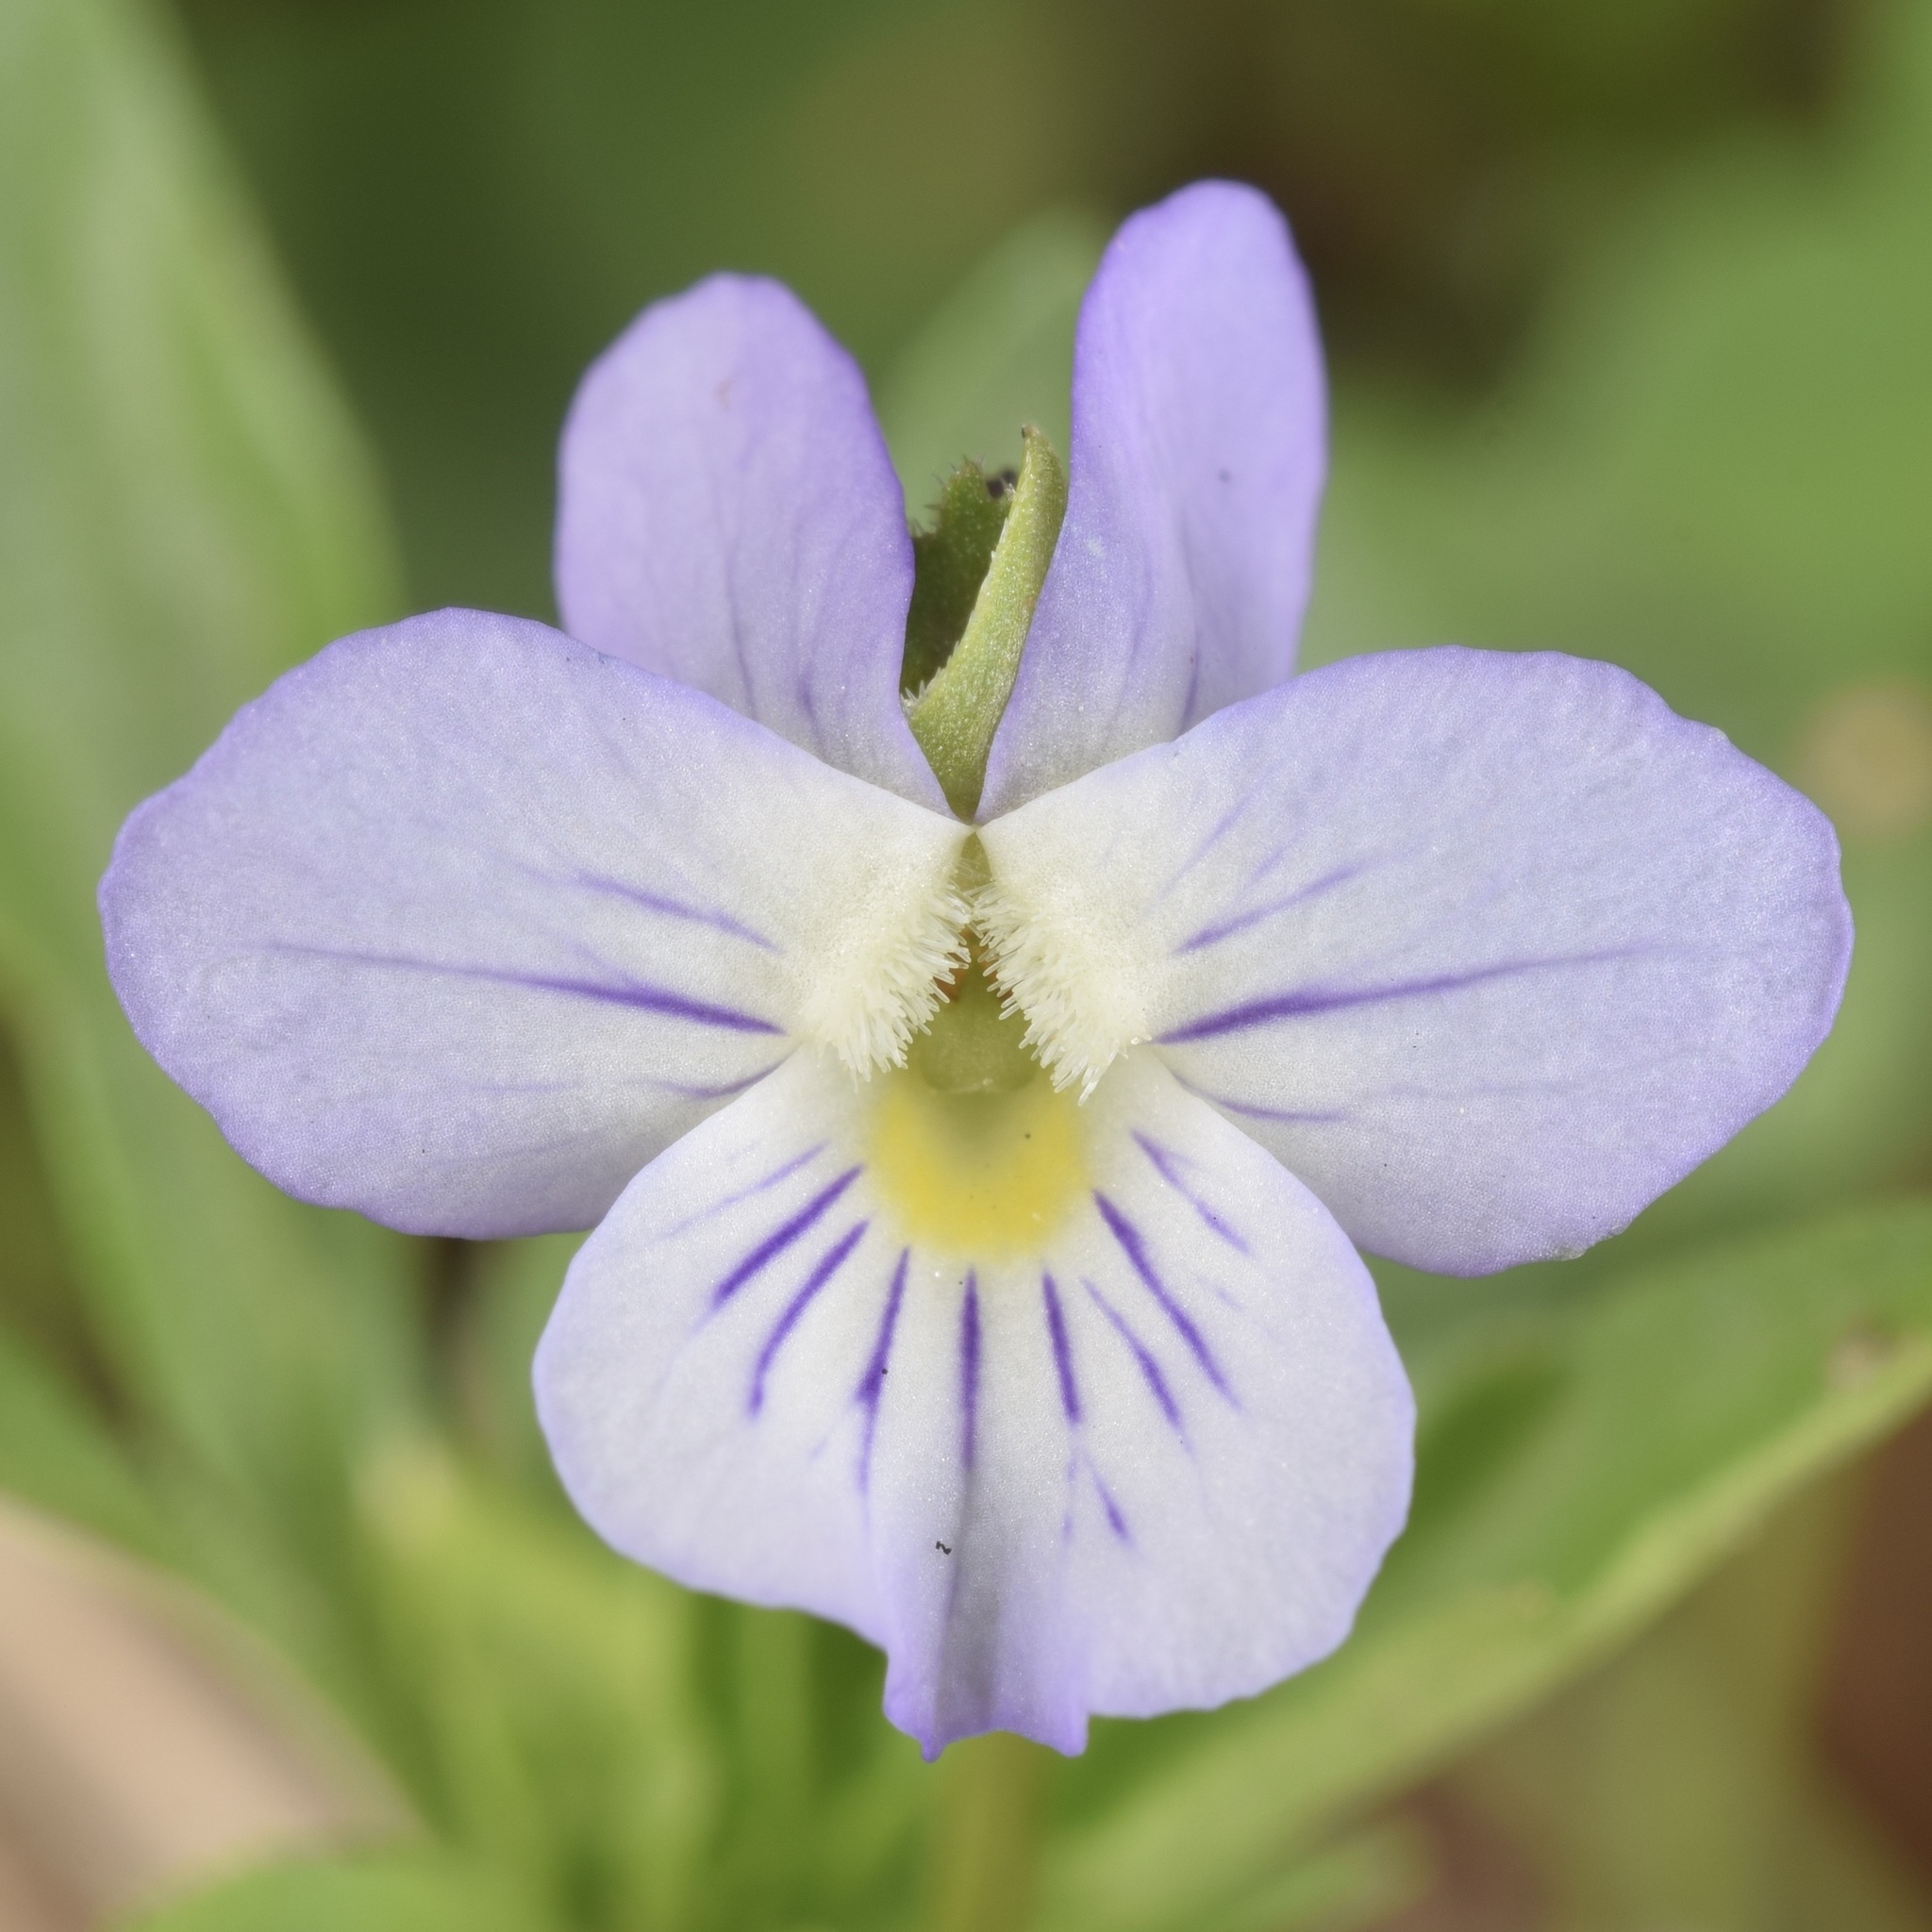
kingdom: Plantae
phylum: Tracheophyta
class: Magnoliopsida
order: Malpighiales
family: Violaceae
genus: Viola
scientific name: Viola rafinesquei
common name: American field pansy
